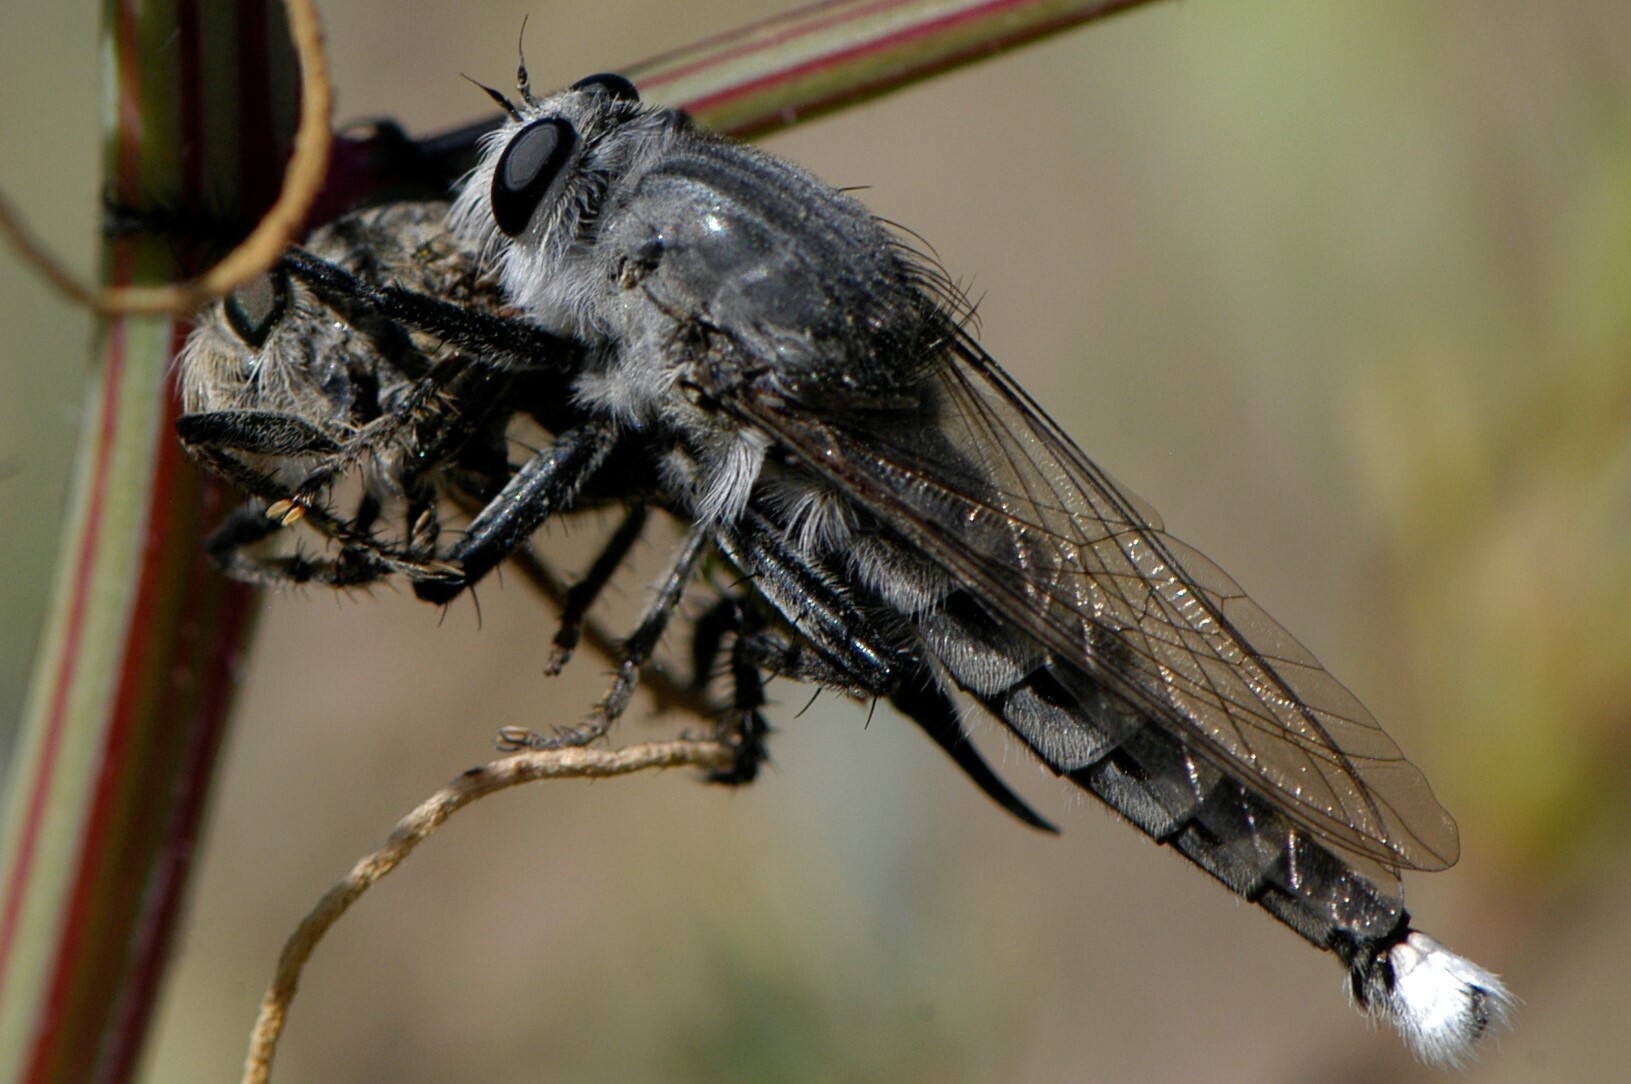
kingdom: Animalia
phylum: Arthropoda
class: Insecta
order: Diptera
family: Asilidae
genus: Promachus
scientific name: Promachus
